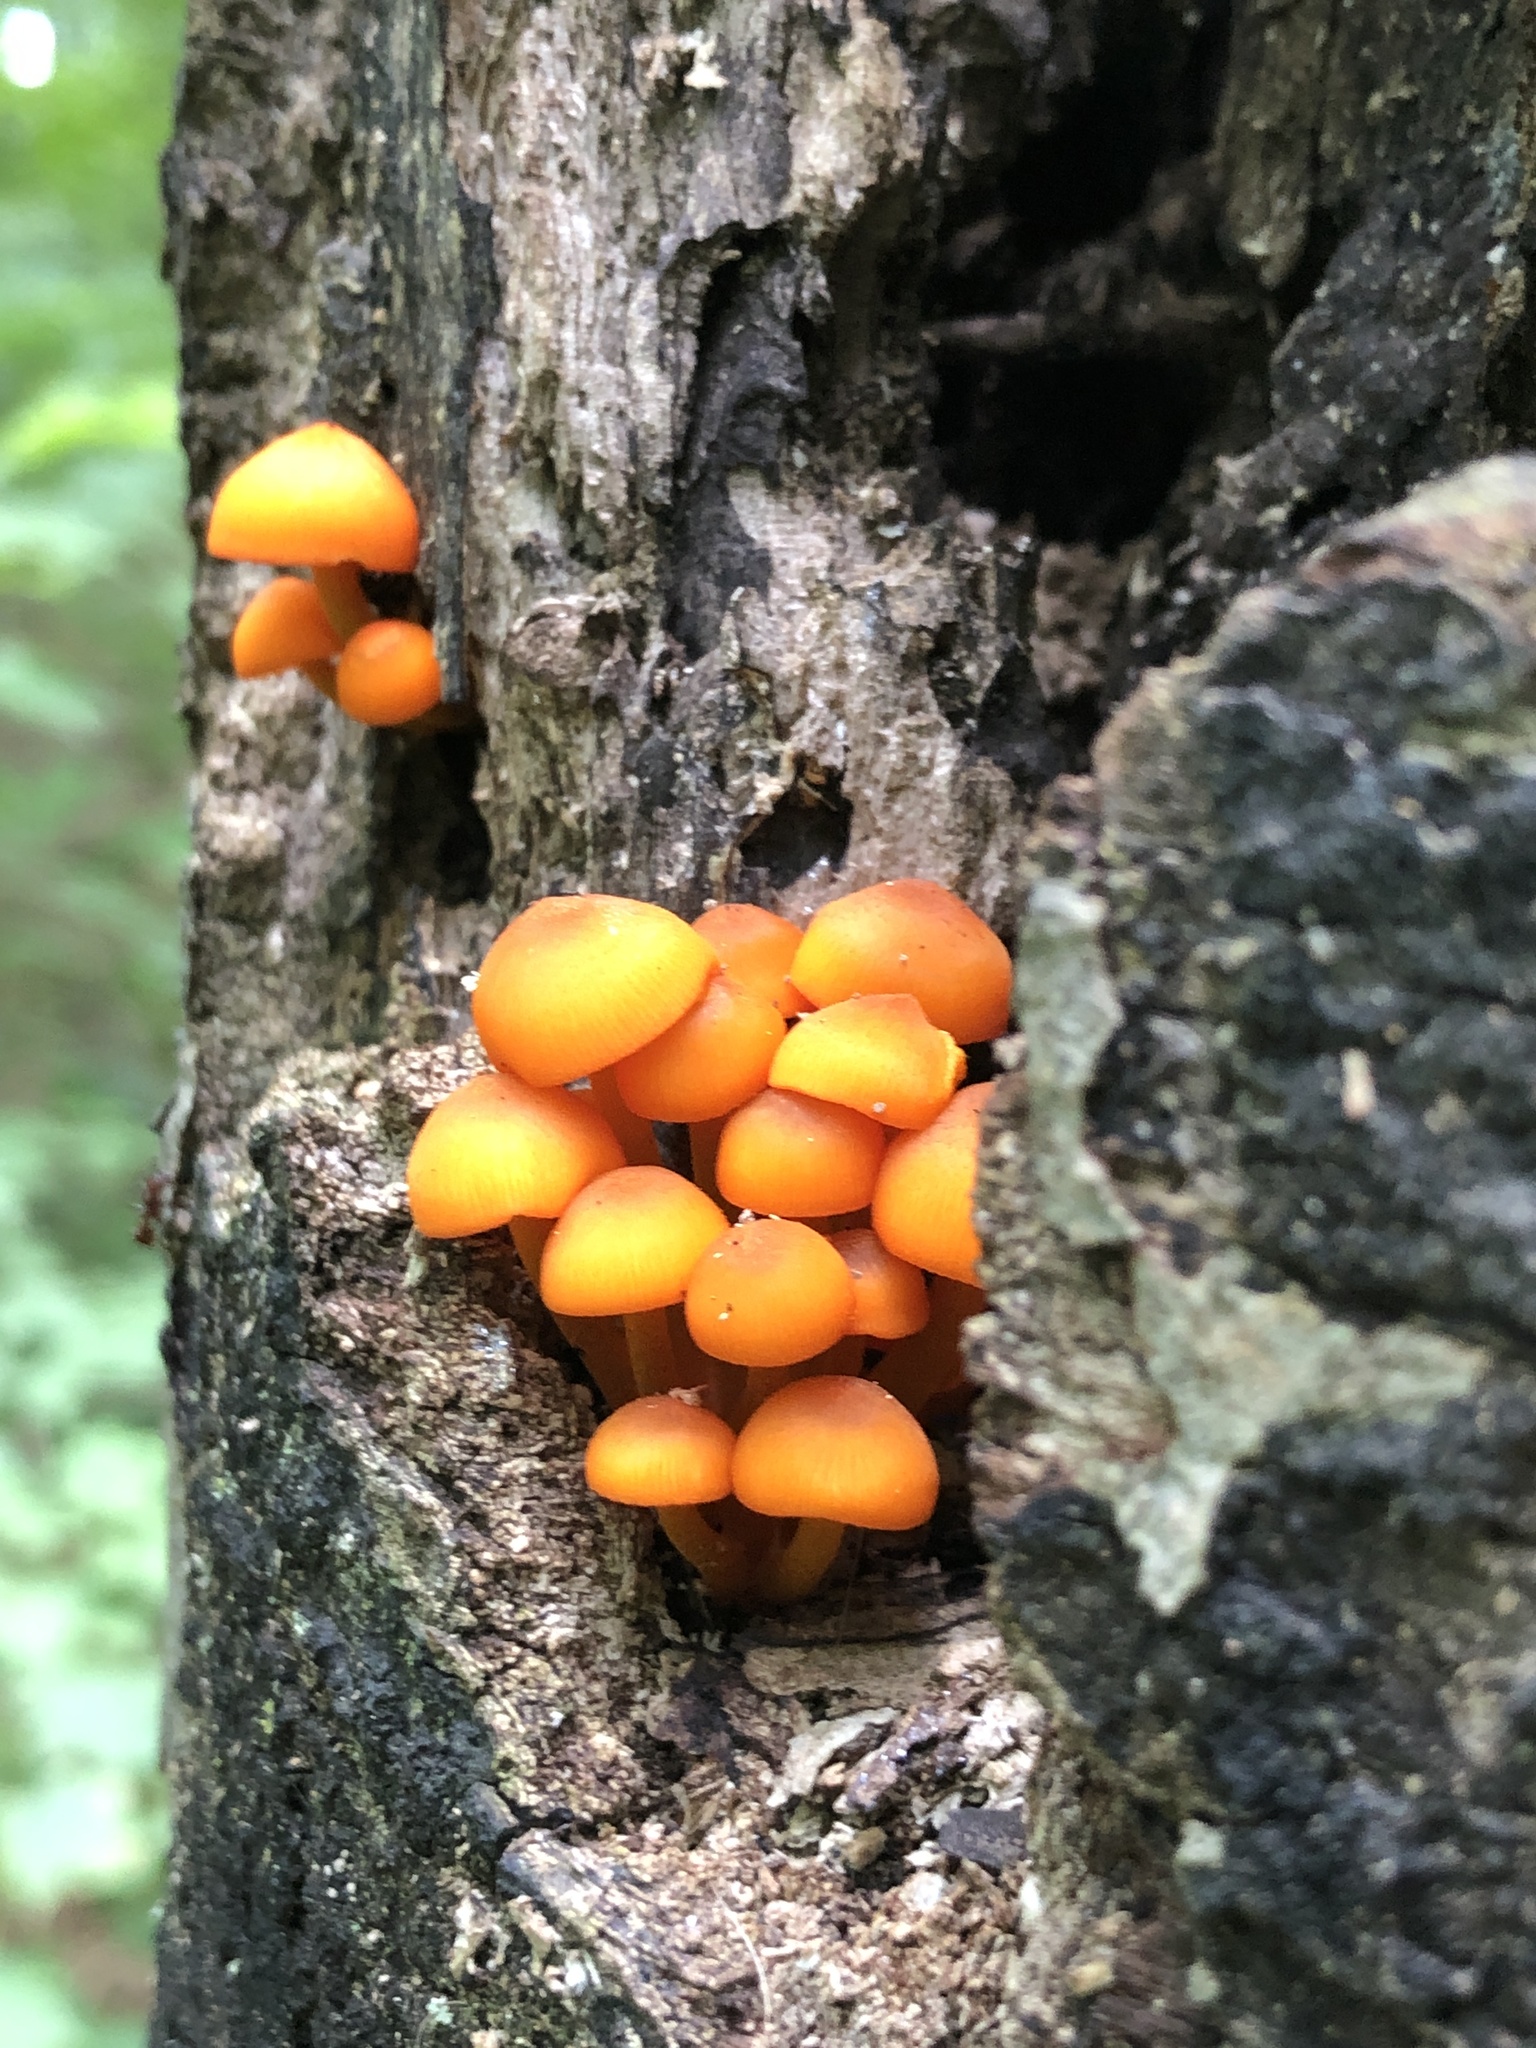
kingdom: Fungi
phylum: Basidiomycota
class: Agaricomycetes
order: Agaricales
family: Mycenaceae
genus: Mycena
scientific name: Mycena leaiana
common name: Orange mycena
